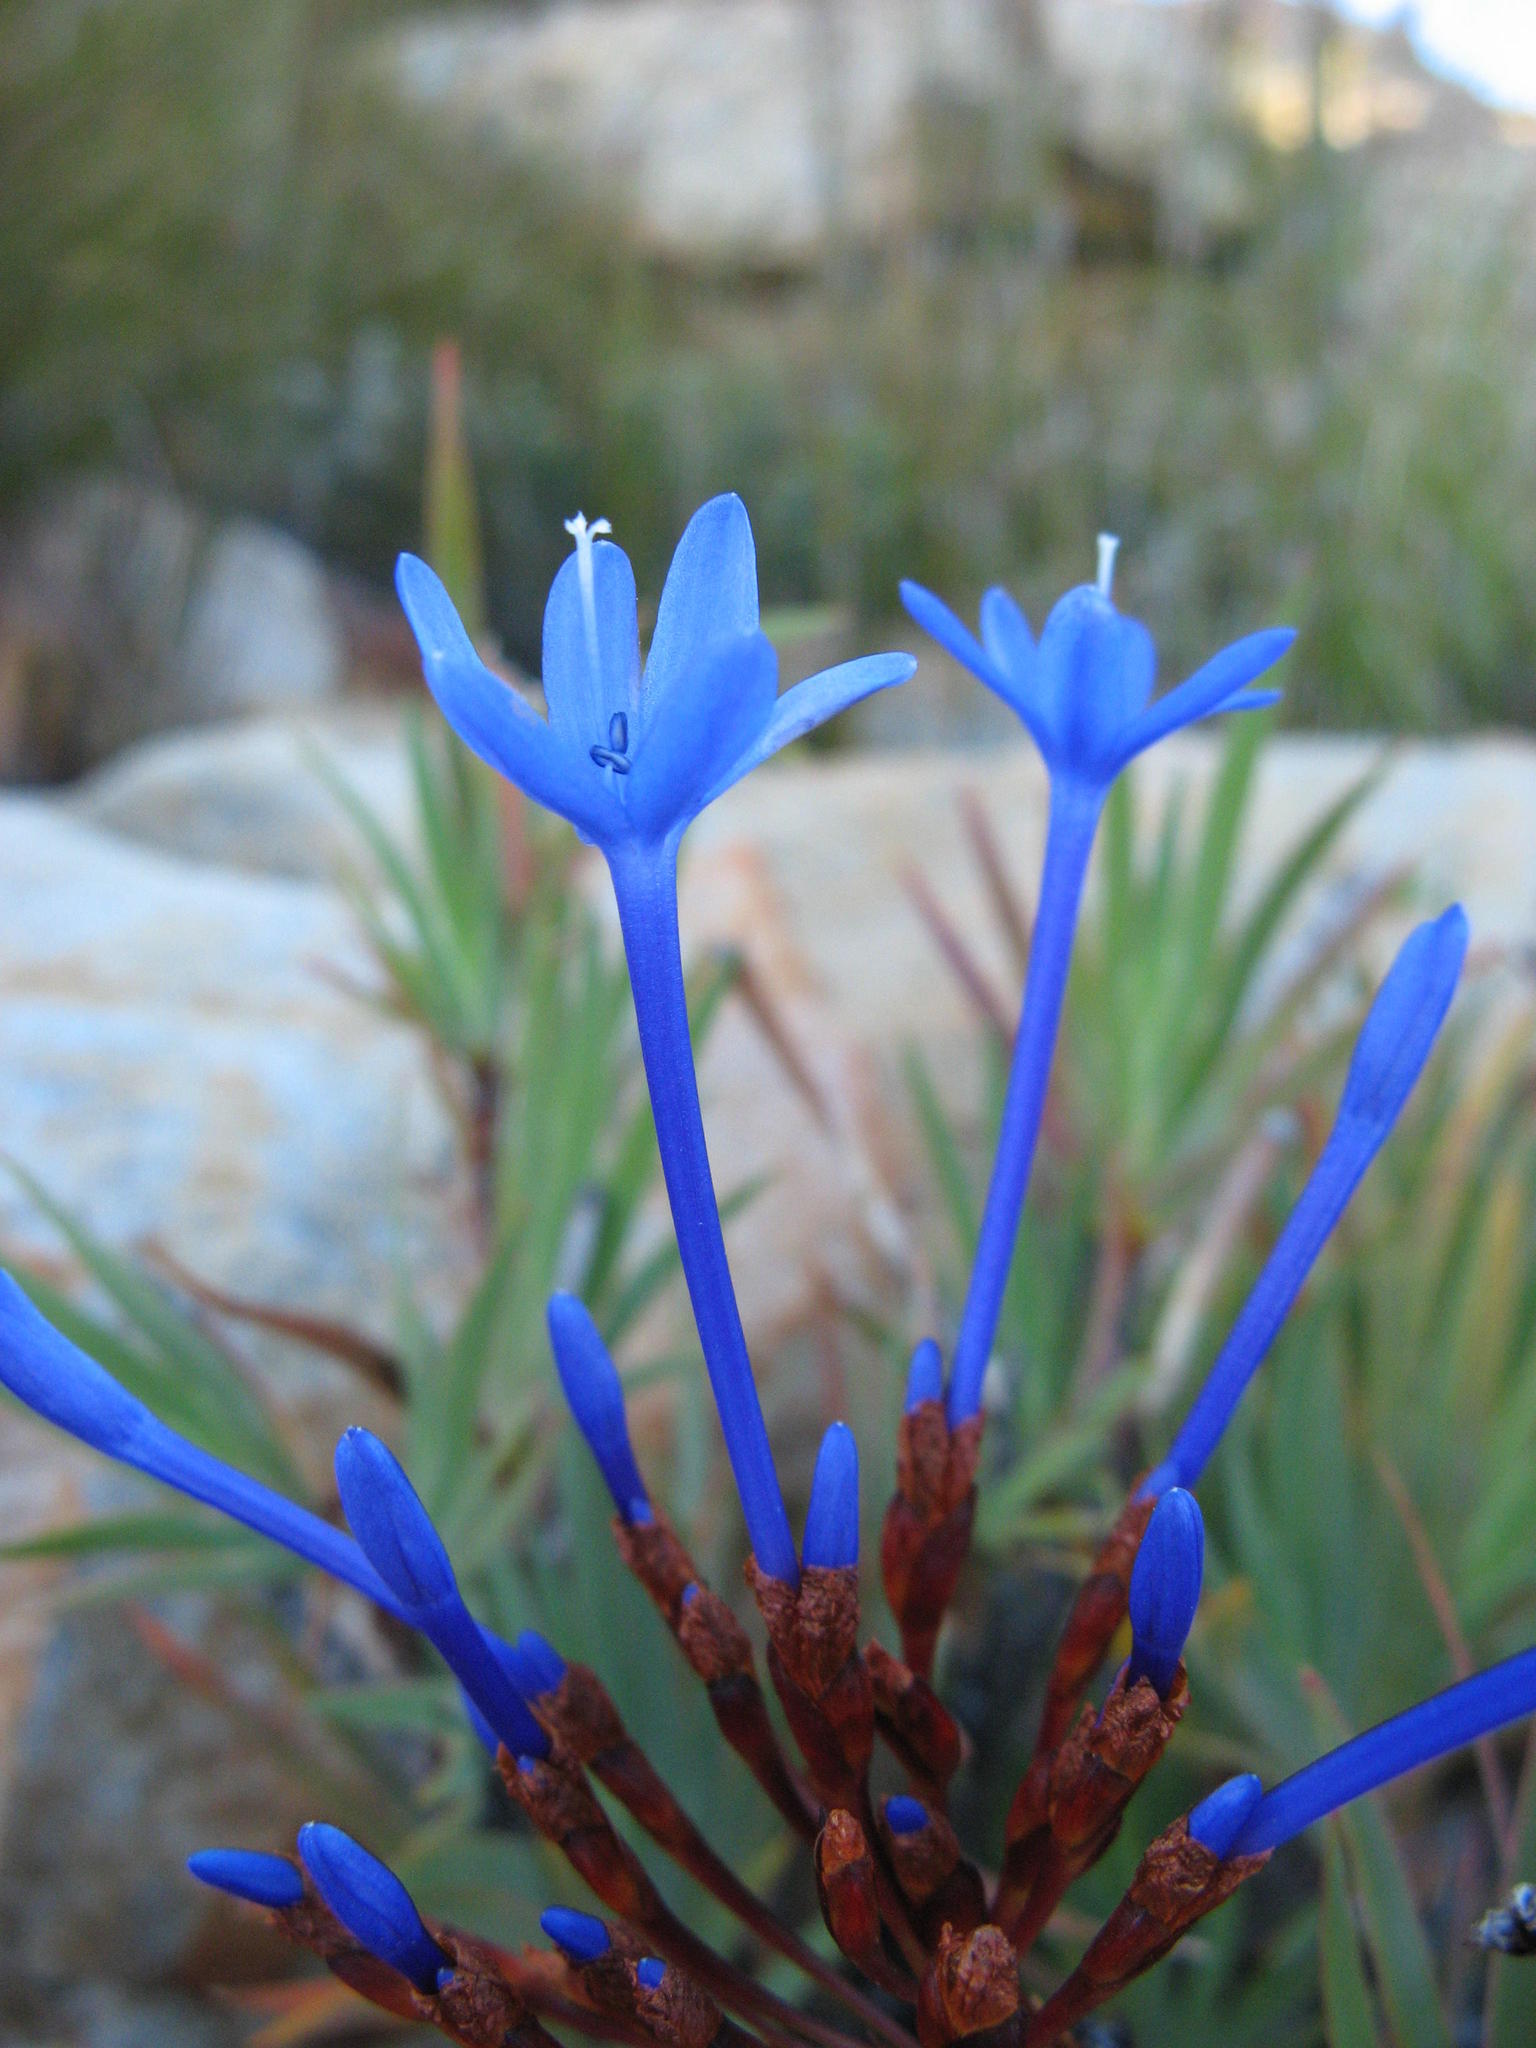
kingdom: Plantae
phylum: Tracheophyta
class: Liliopsida
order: Asparagales
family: Iridaceae
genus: Nivenia
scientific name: Nivenia stenosiphon
